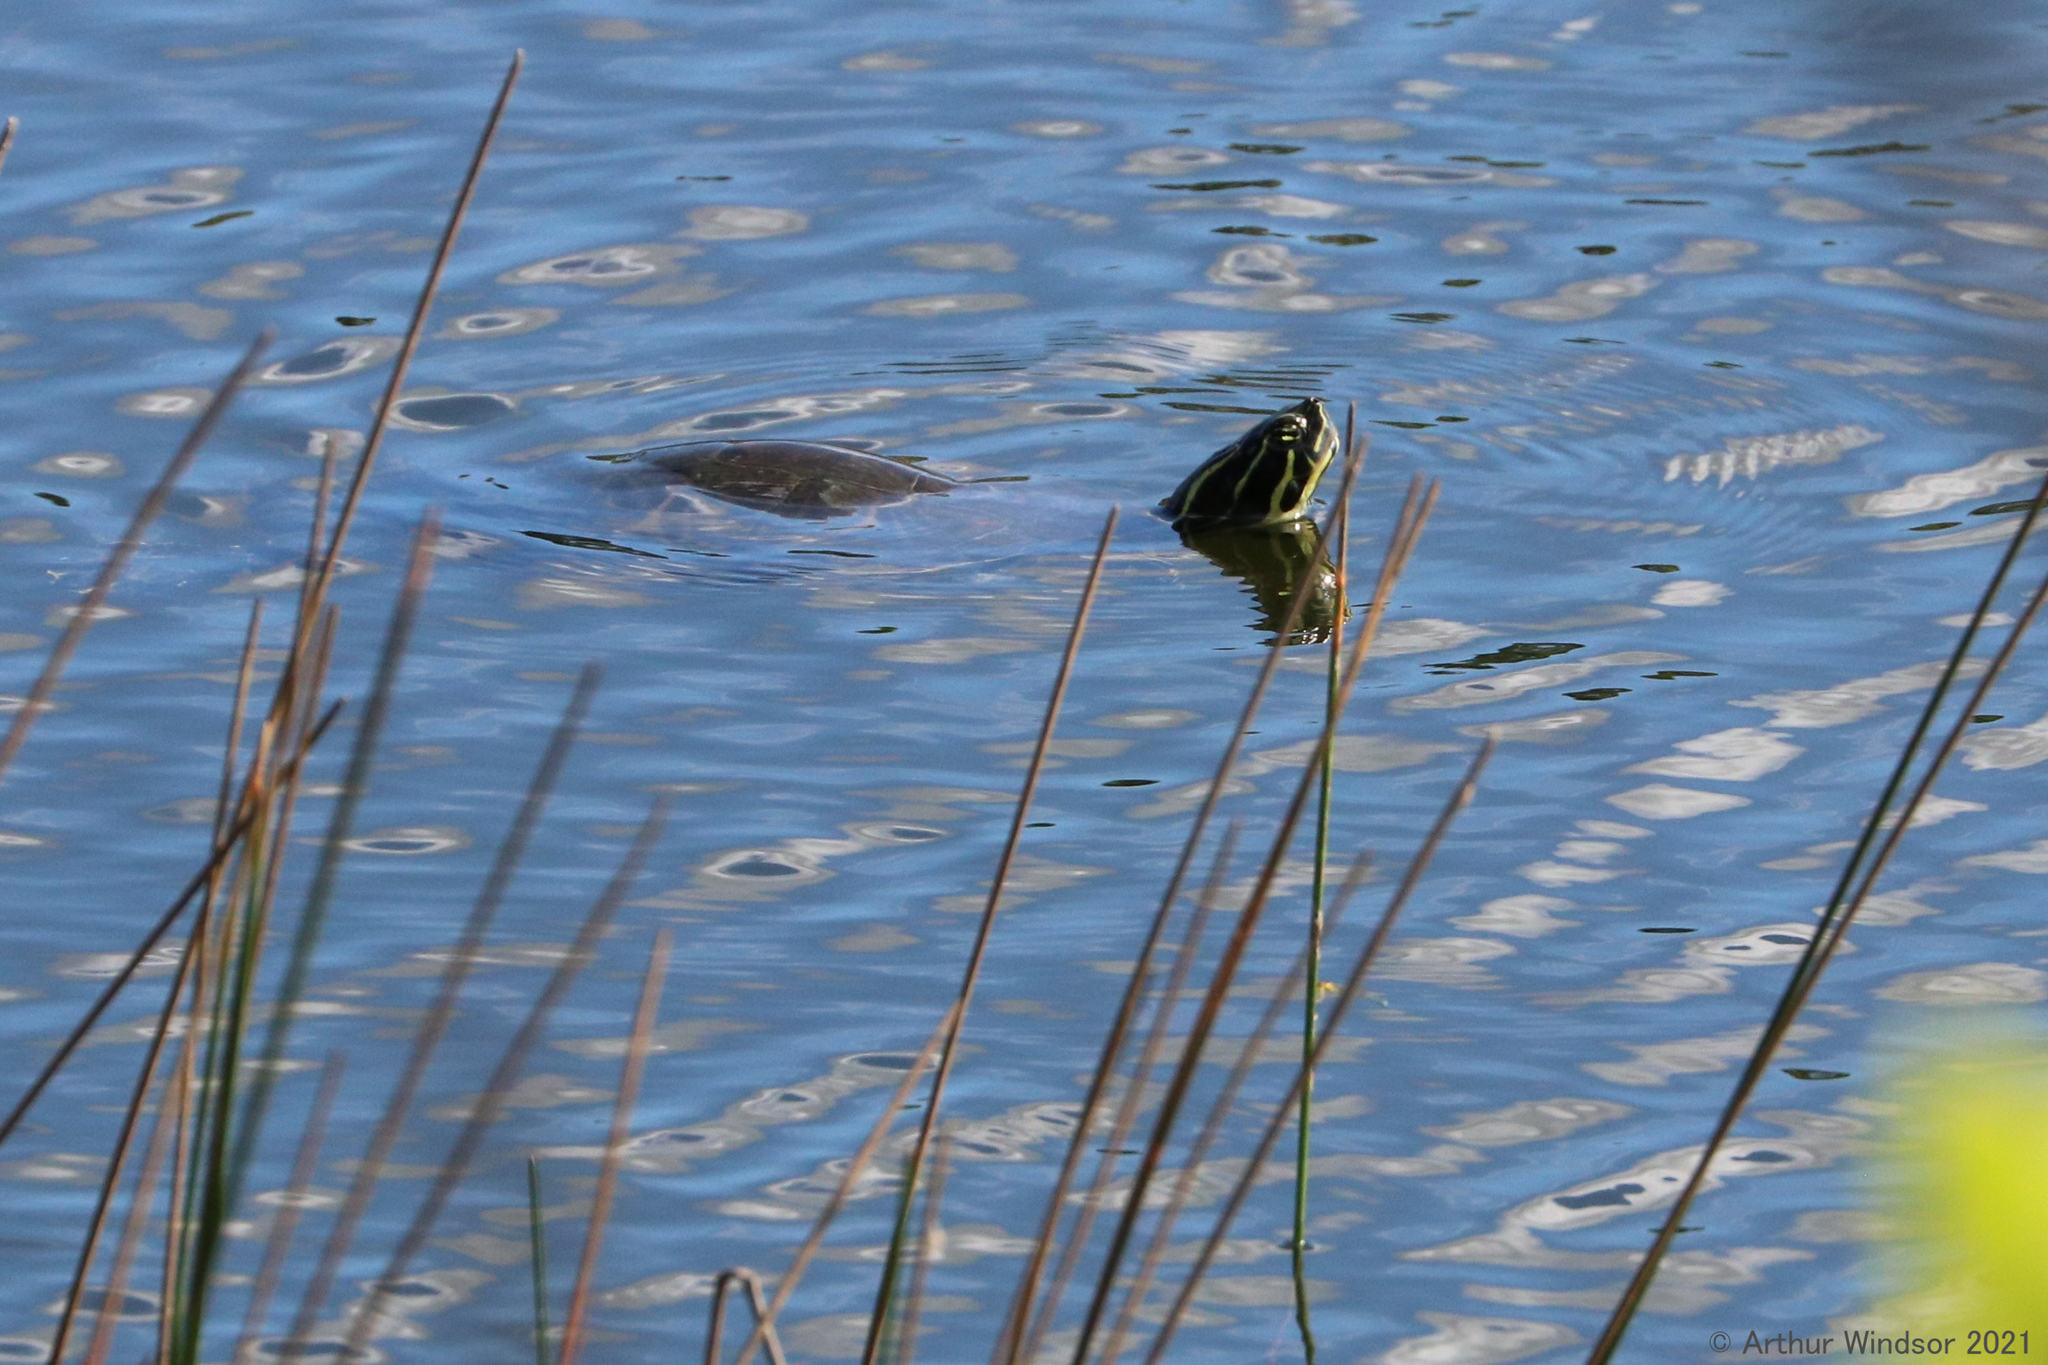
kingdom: Animalia
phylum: Chordata
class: Testudines
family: Emydidae
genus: Pseudemys
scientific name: Pseudemys peninsularis
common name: Peninsula cooter
